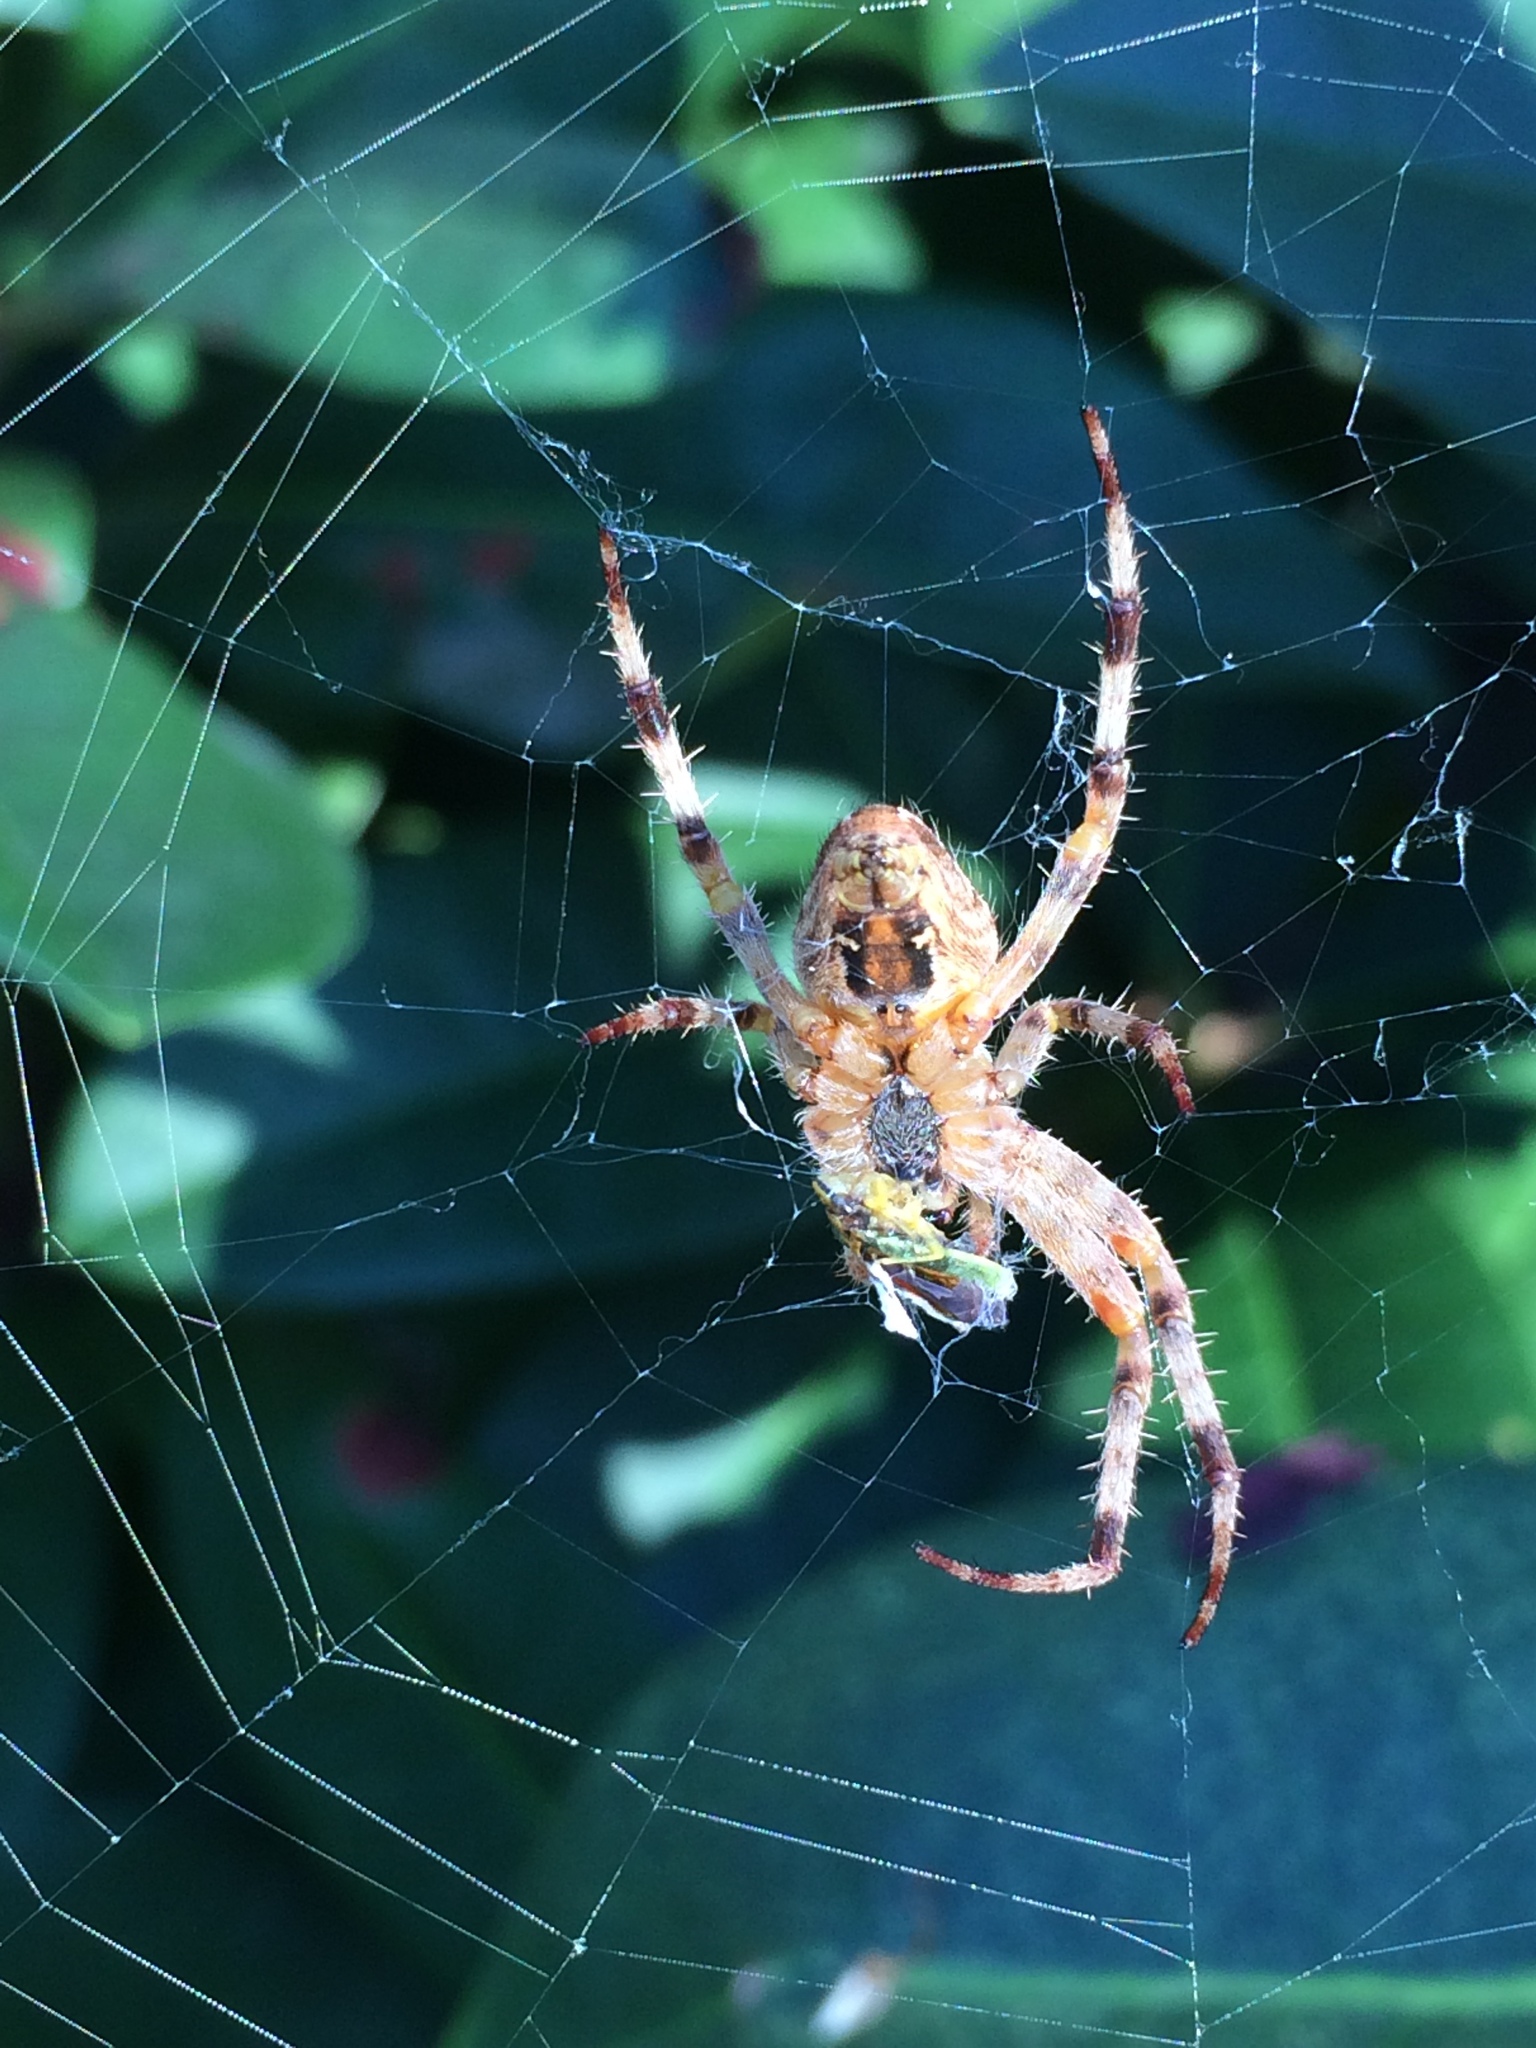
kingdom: Animalia
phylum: Arthropoda
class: Arachnida
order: Araneae
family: Araneidae
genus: Araneus
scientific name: Araneus diadematus
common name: Cross orbweaver
